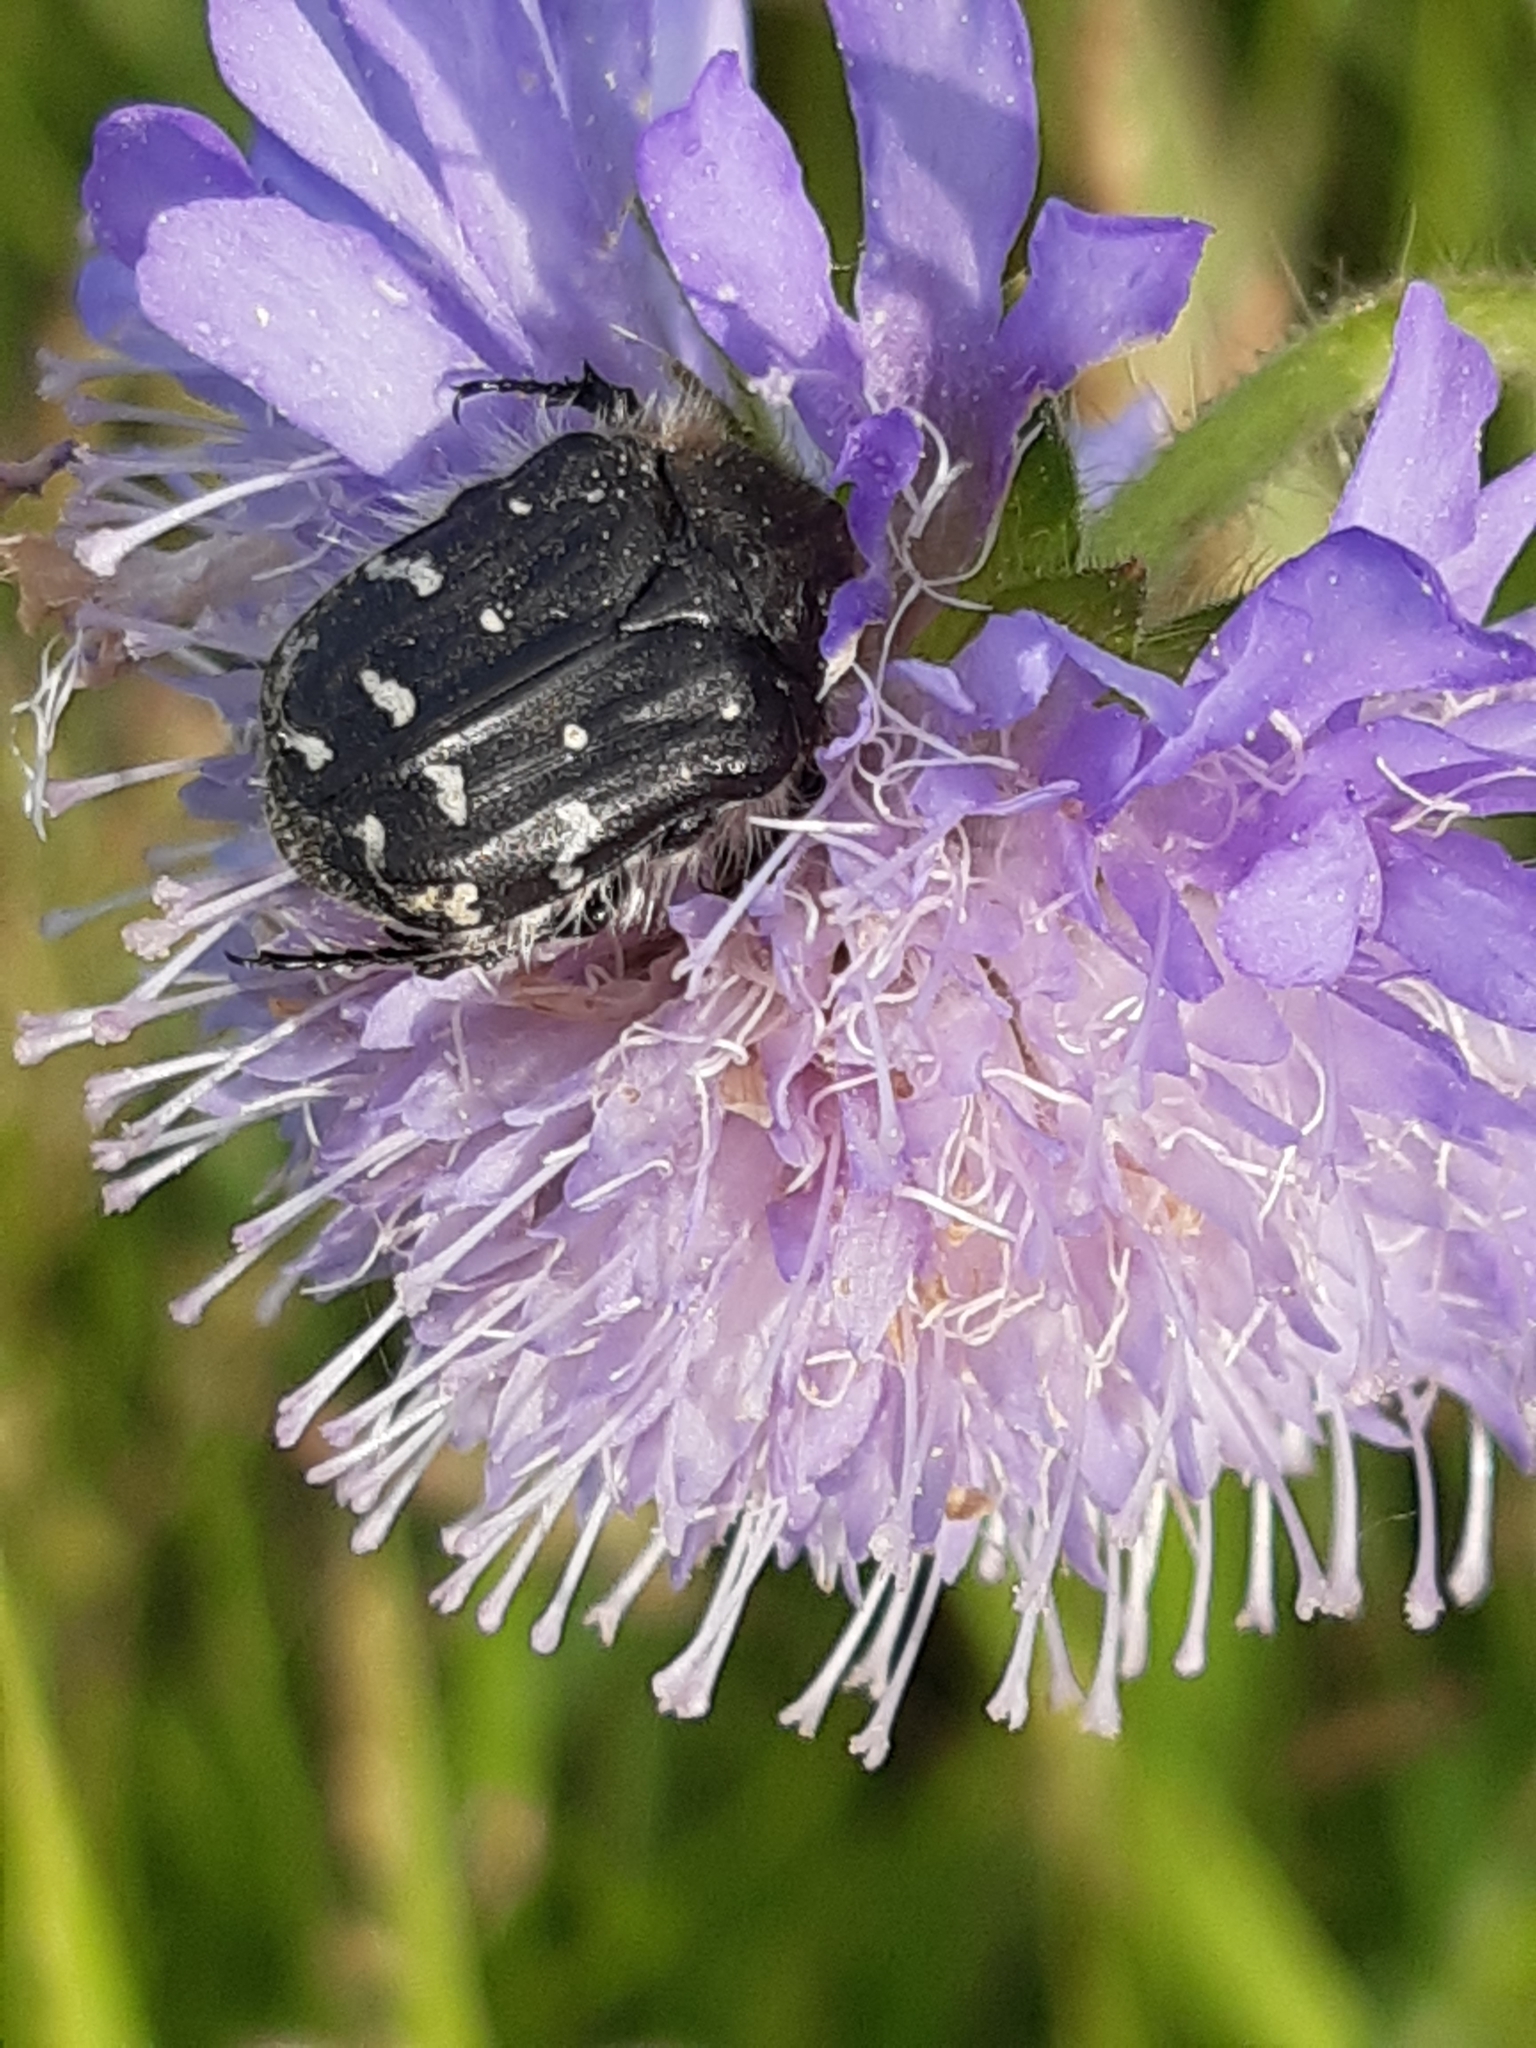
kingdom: Animalia
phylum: Arthropoda
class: Insecta
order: Coleoptera
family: Scarabaeidae
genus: Tropinota
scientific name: Tropinota hirta
